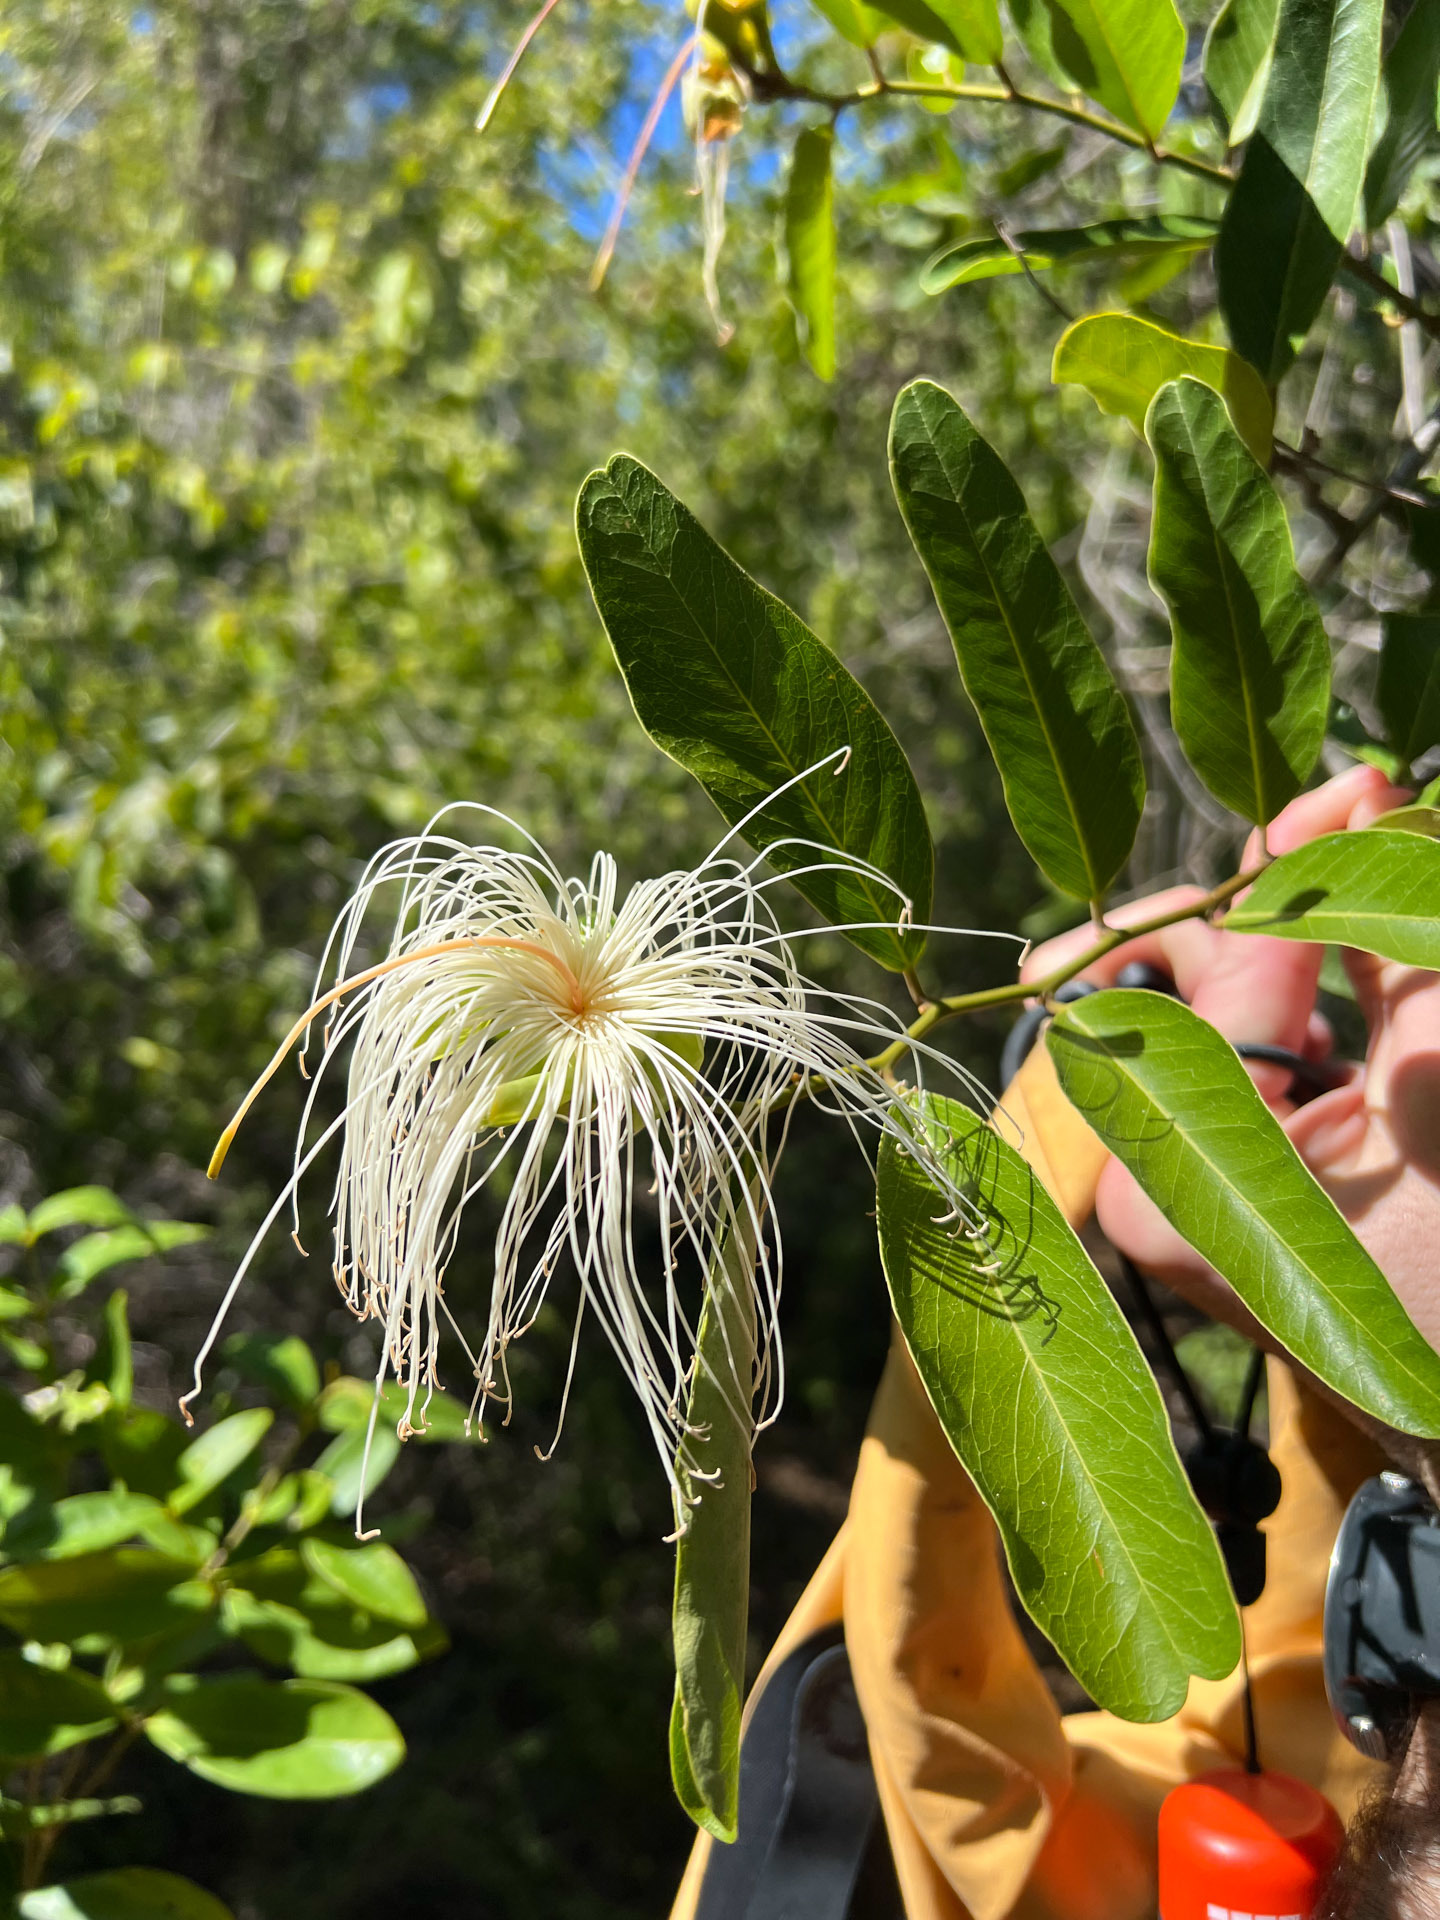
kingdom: Plantae
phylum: Tracheophyta
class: Magnoliopsida
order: Brassicales
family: Capparaceae
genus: Cynophalla
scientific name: Cynophalla flexuosa
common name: Capertree
